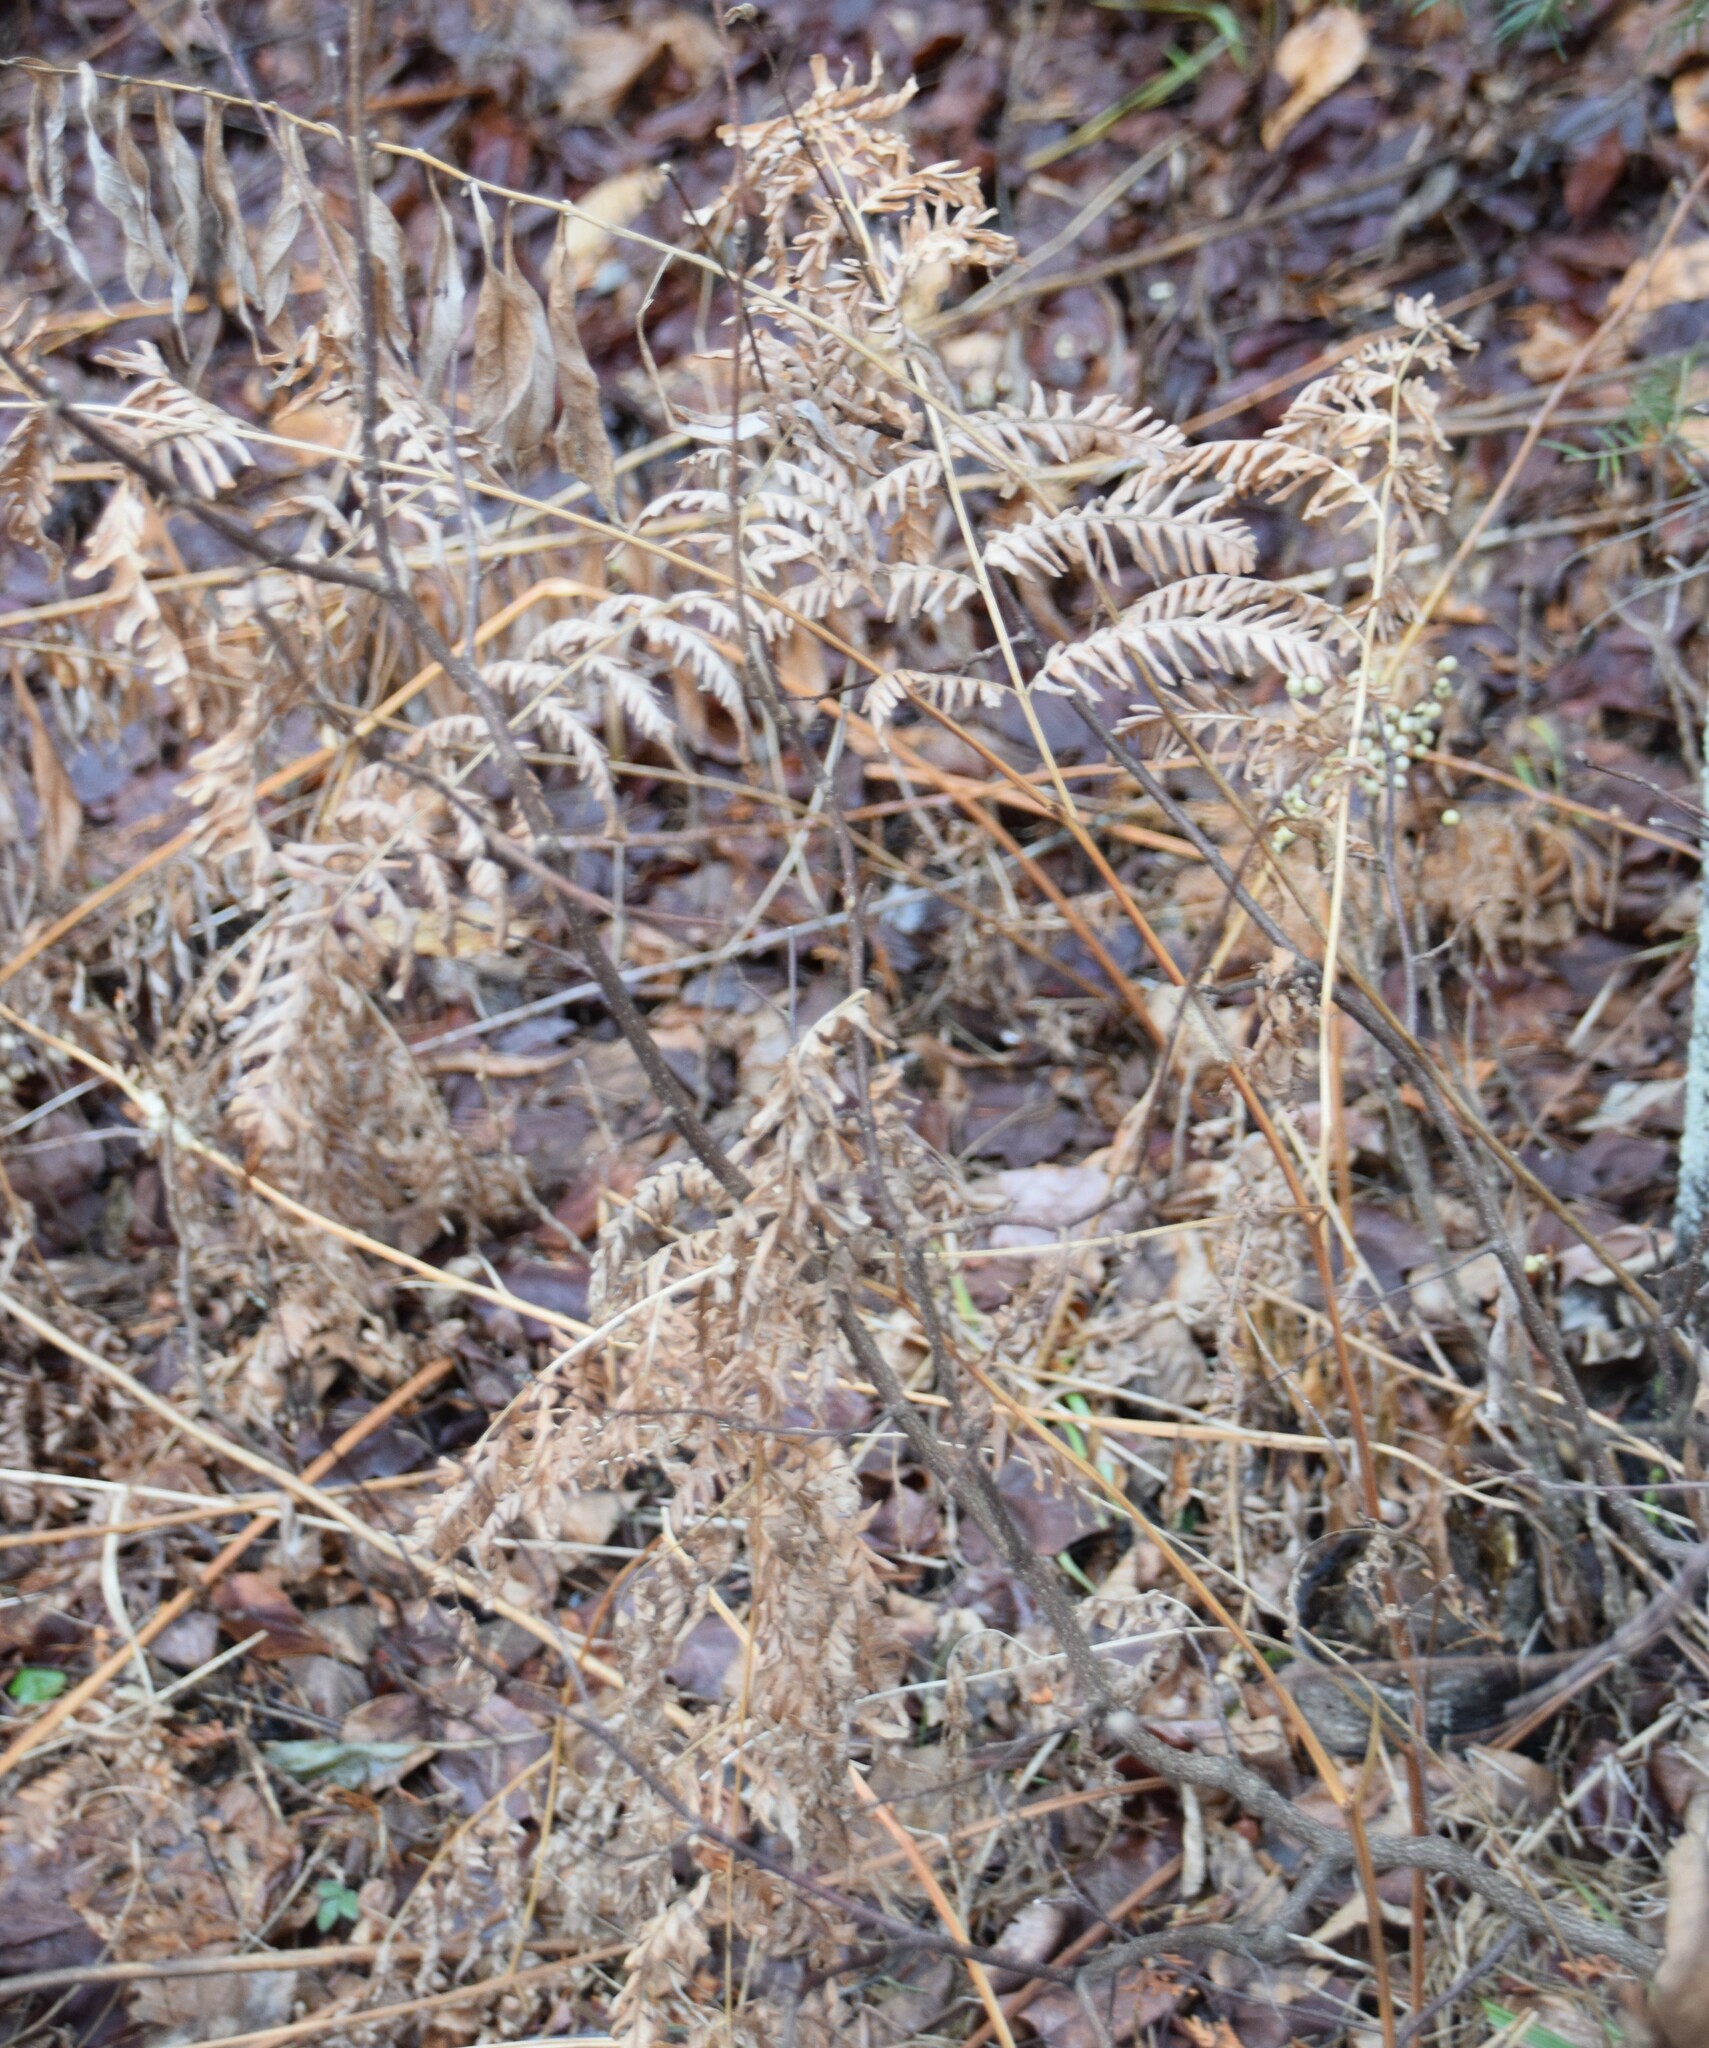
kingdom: Plantae
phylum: Tracheophyta
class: Polypodiopsida
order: Polypodiales
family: Dennstaedtiaceae
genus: Pteridium
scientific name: Pteridium aquilinum
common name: Bracken
